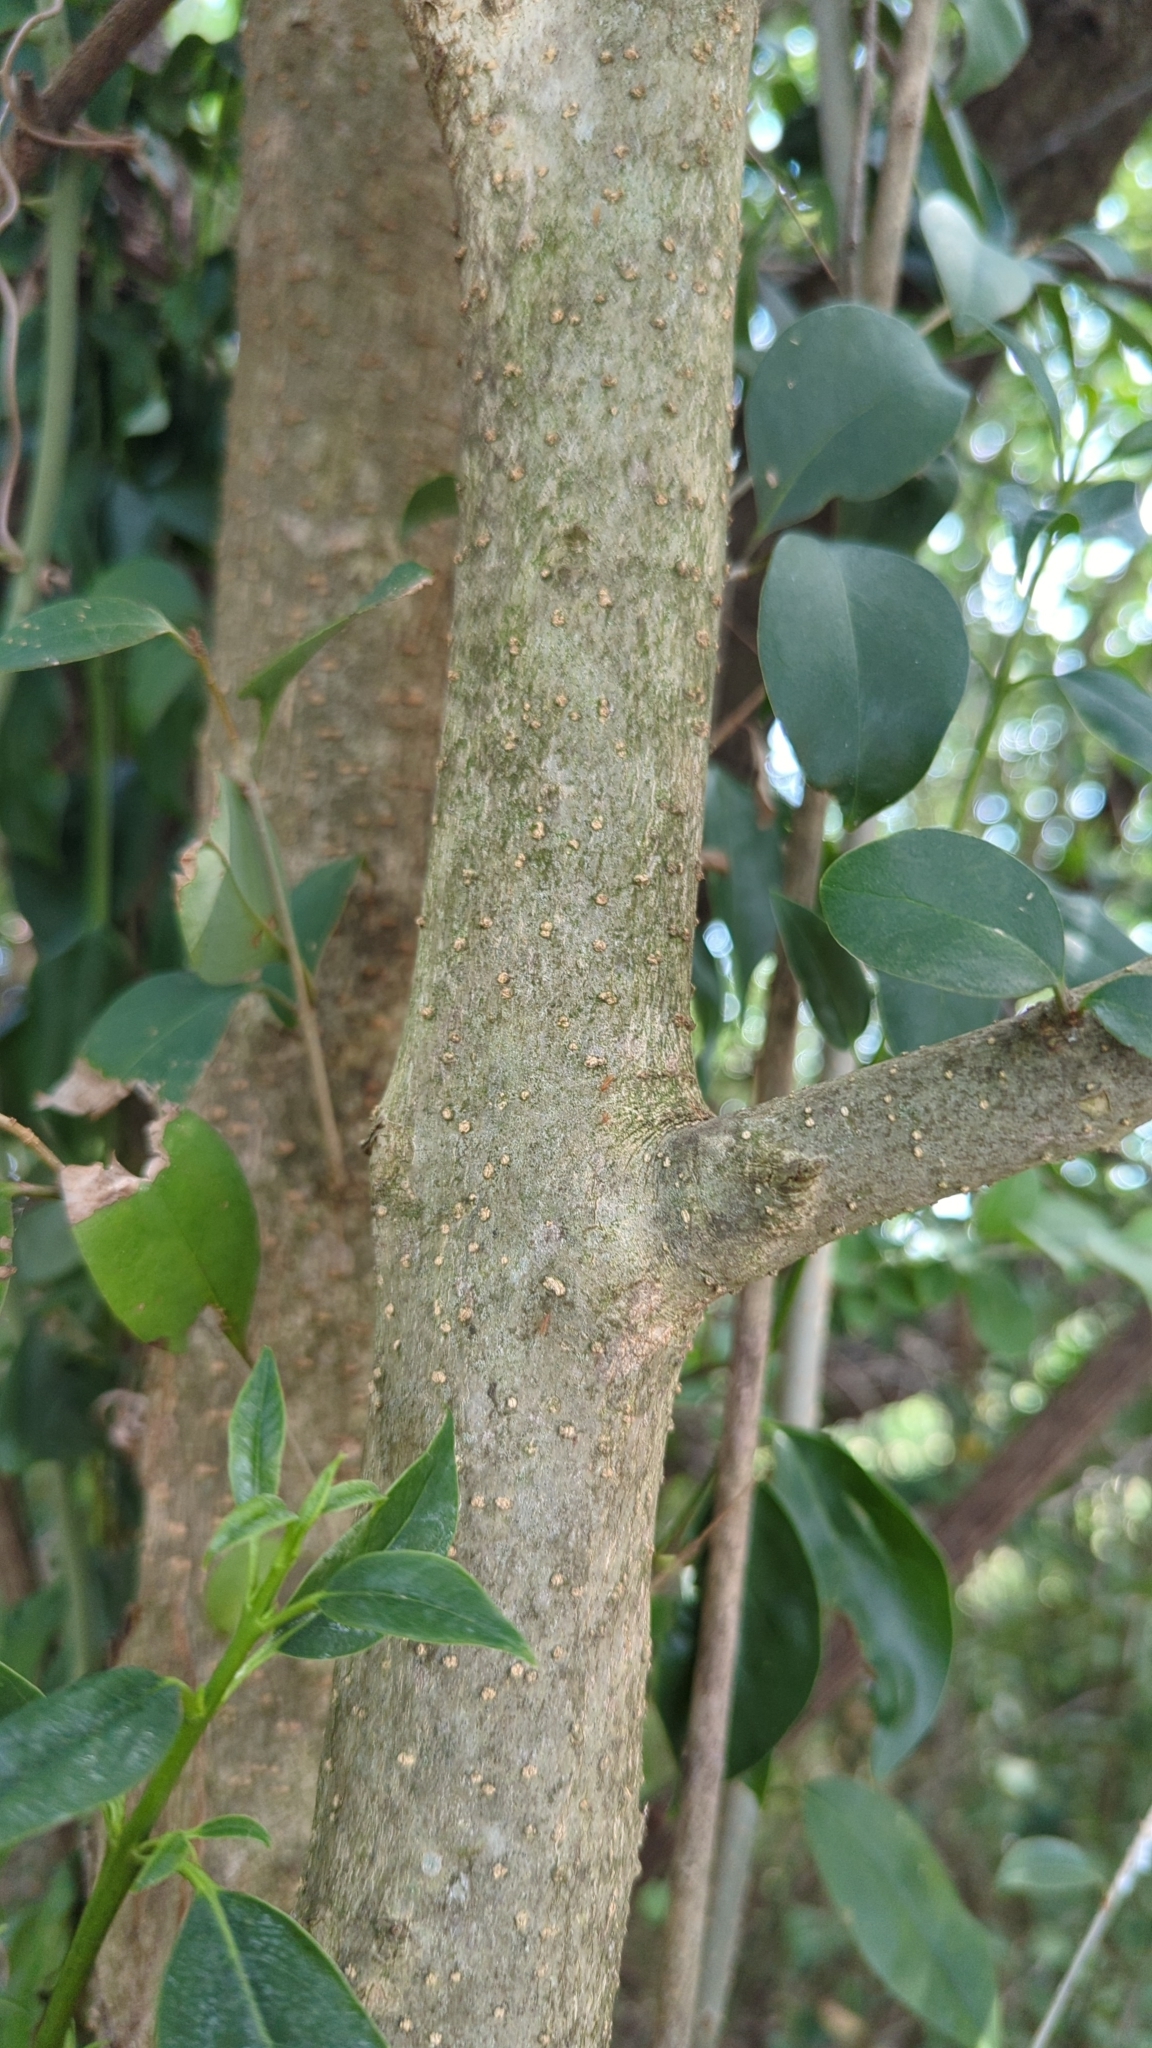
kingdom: Plantae
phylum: Tracheophyta
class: Magnoliopsida
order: Lamiales
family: Oleaceae
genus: Ligustrum
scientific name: Ligustrum lucidum
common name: Glossy privet
